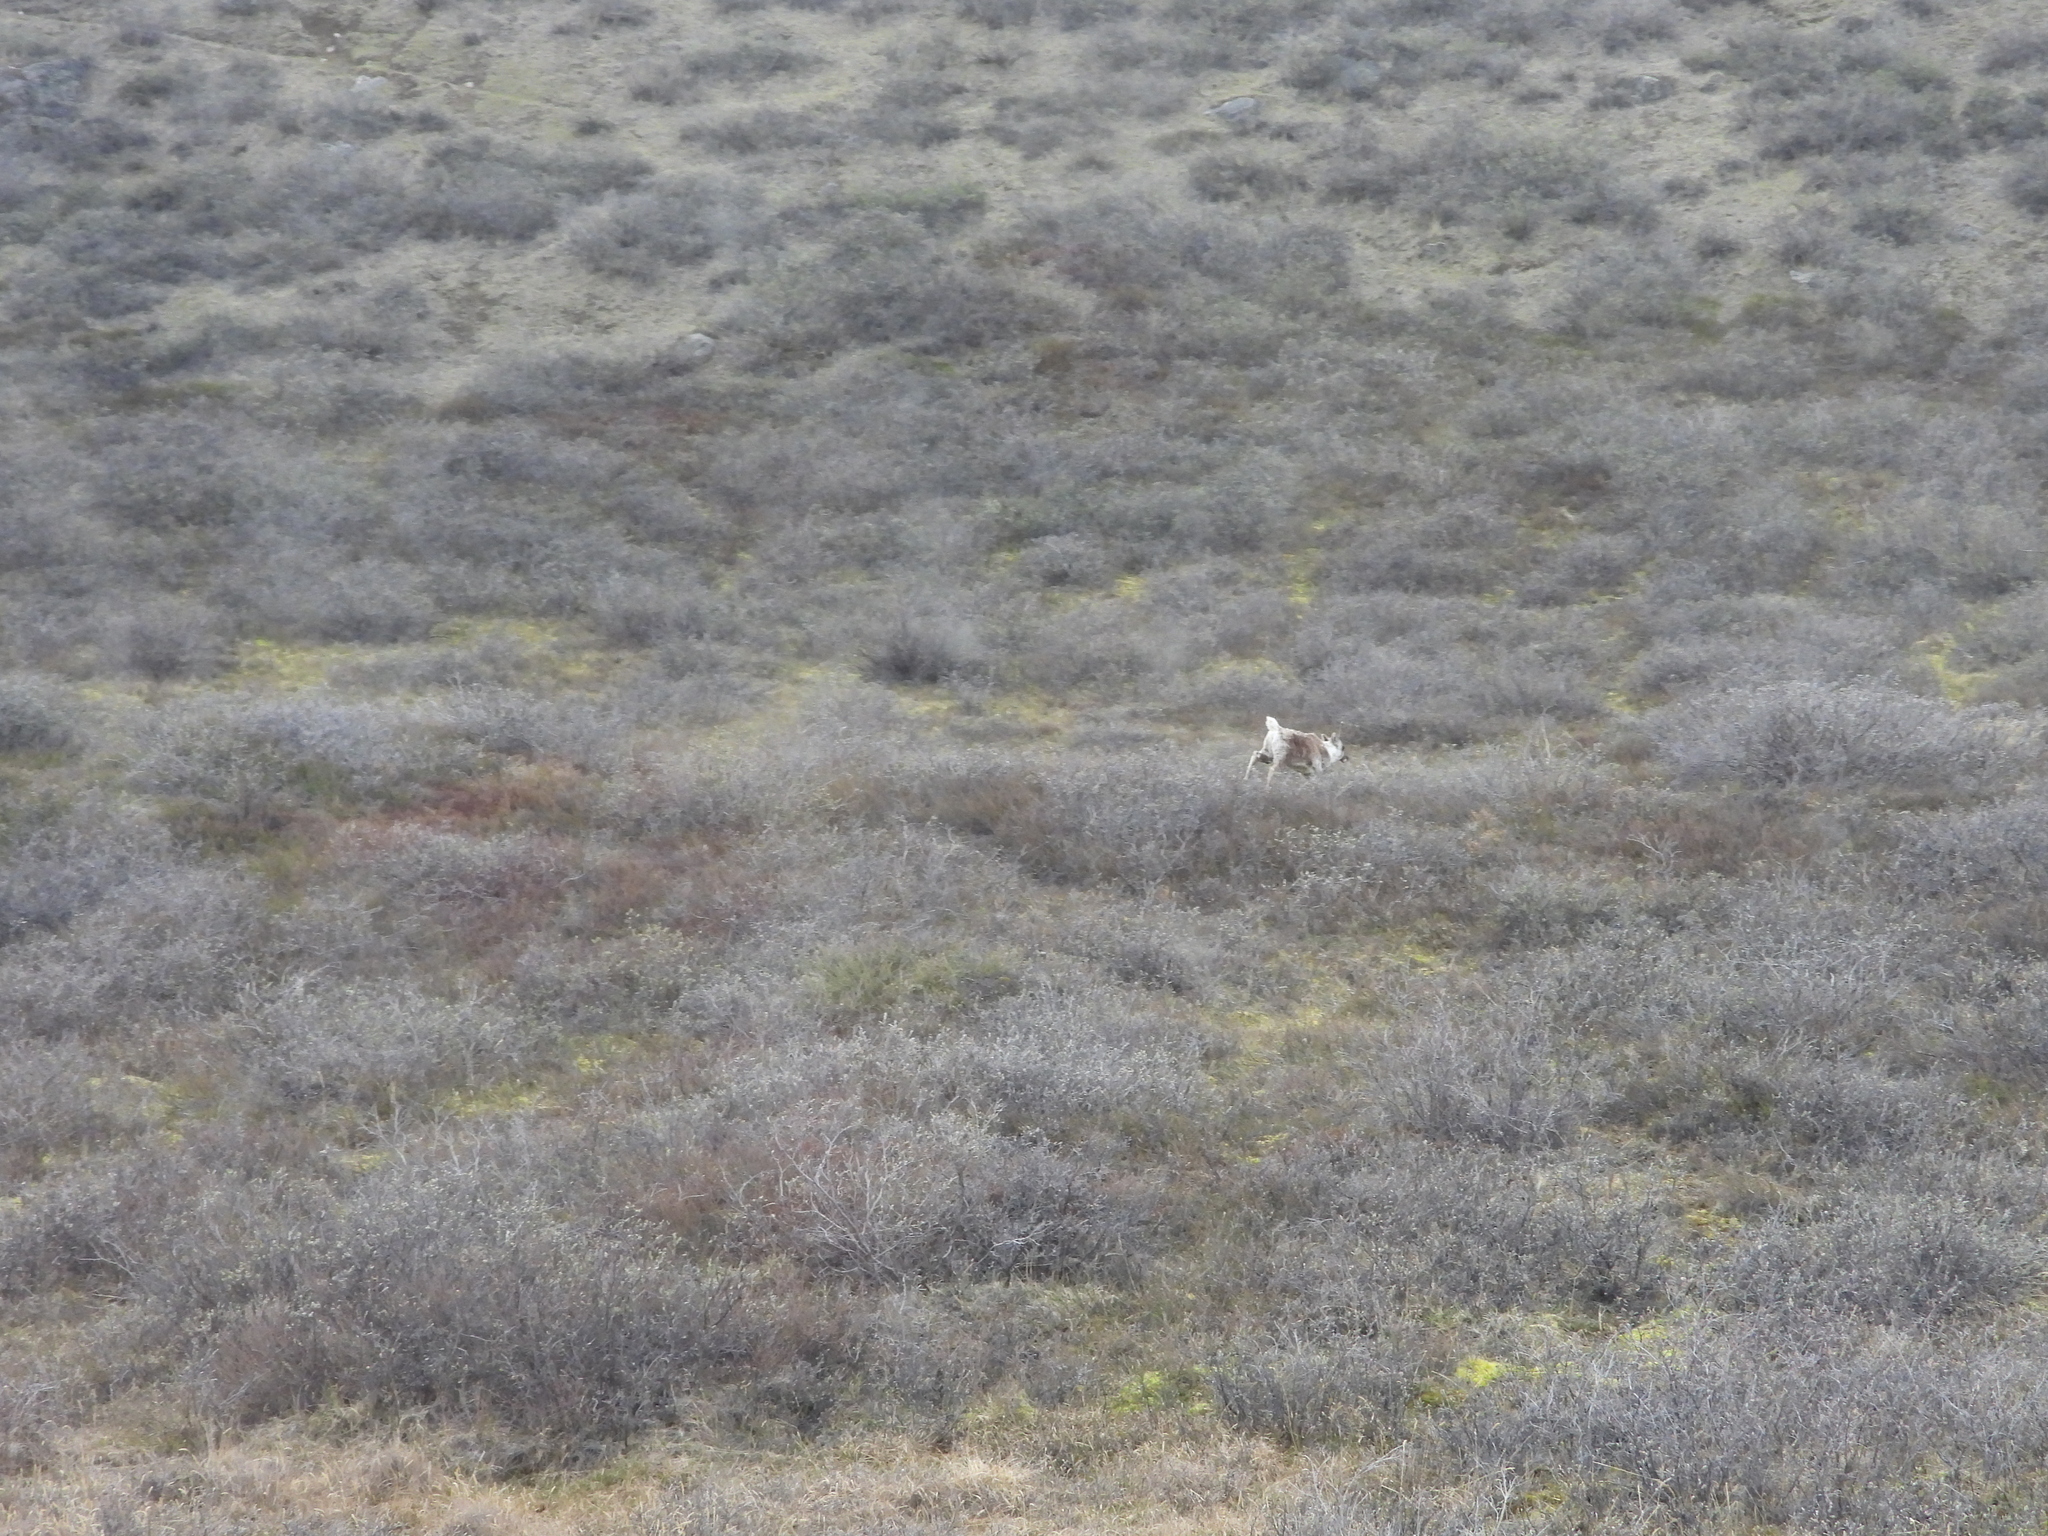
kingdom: Animalia
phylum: Chordata
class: Mammalia
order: Artiodactyla
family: Cervidae
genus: Rangifer
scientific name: Rangifer tarandus
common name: Reindeer
